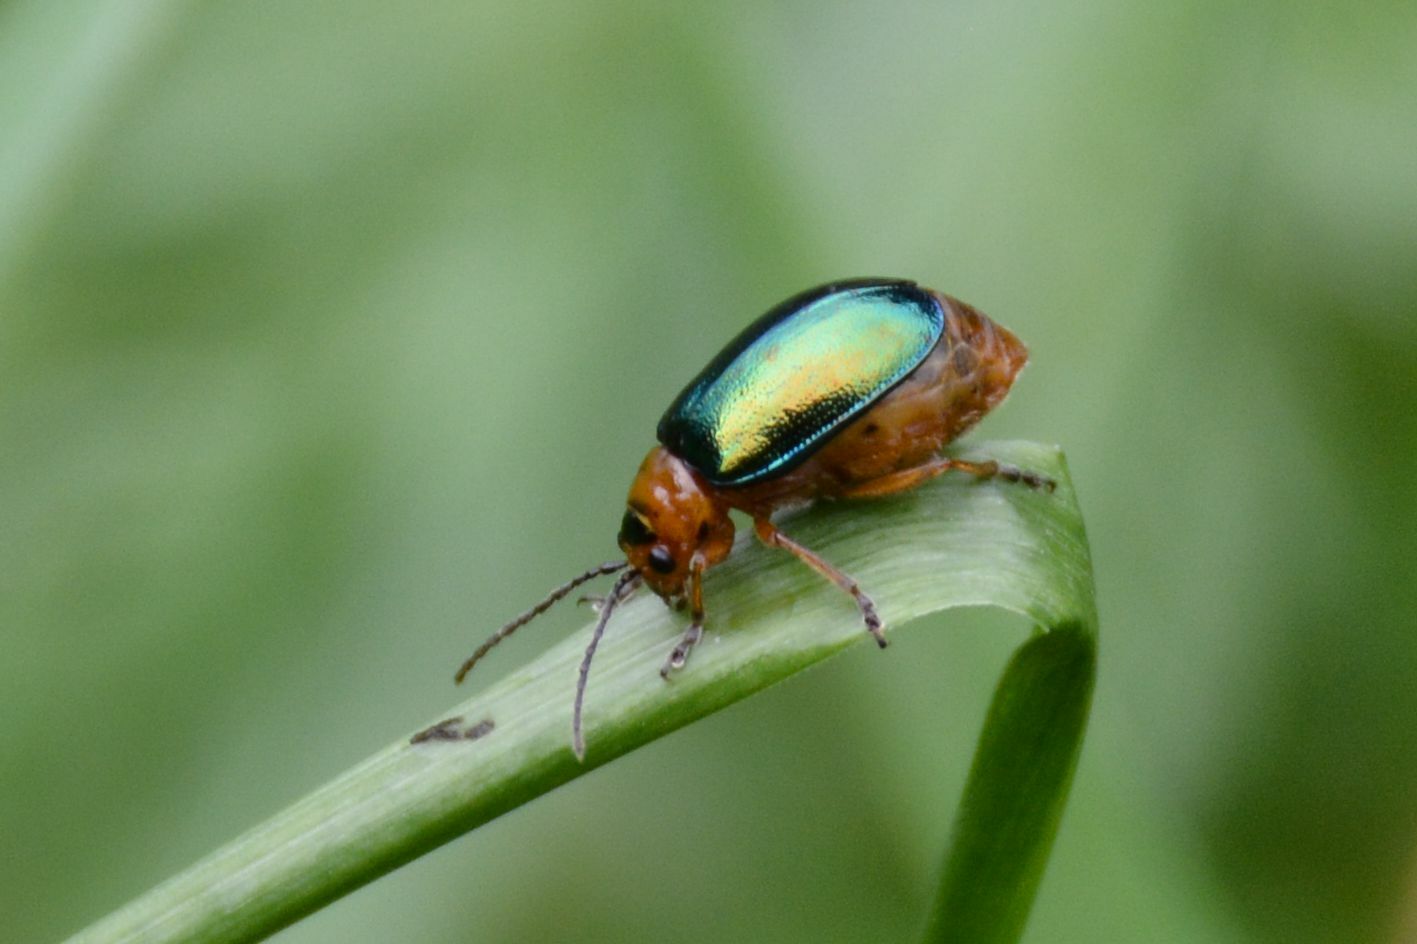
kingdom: Animalia
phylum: Arthropoda
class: Insecta
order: Coleoptera
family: Chrysomelidae
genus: Sermylassa
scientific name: Sermylassa halensis
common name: Leaf beetle
